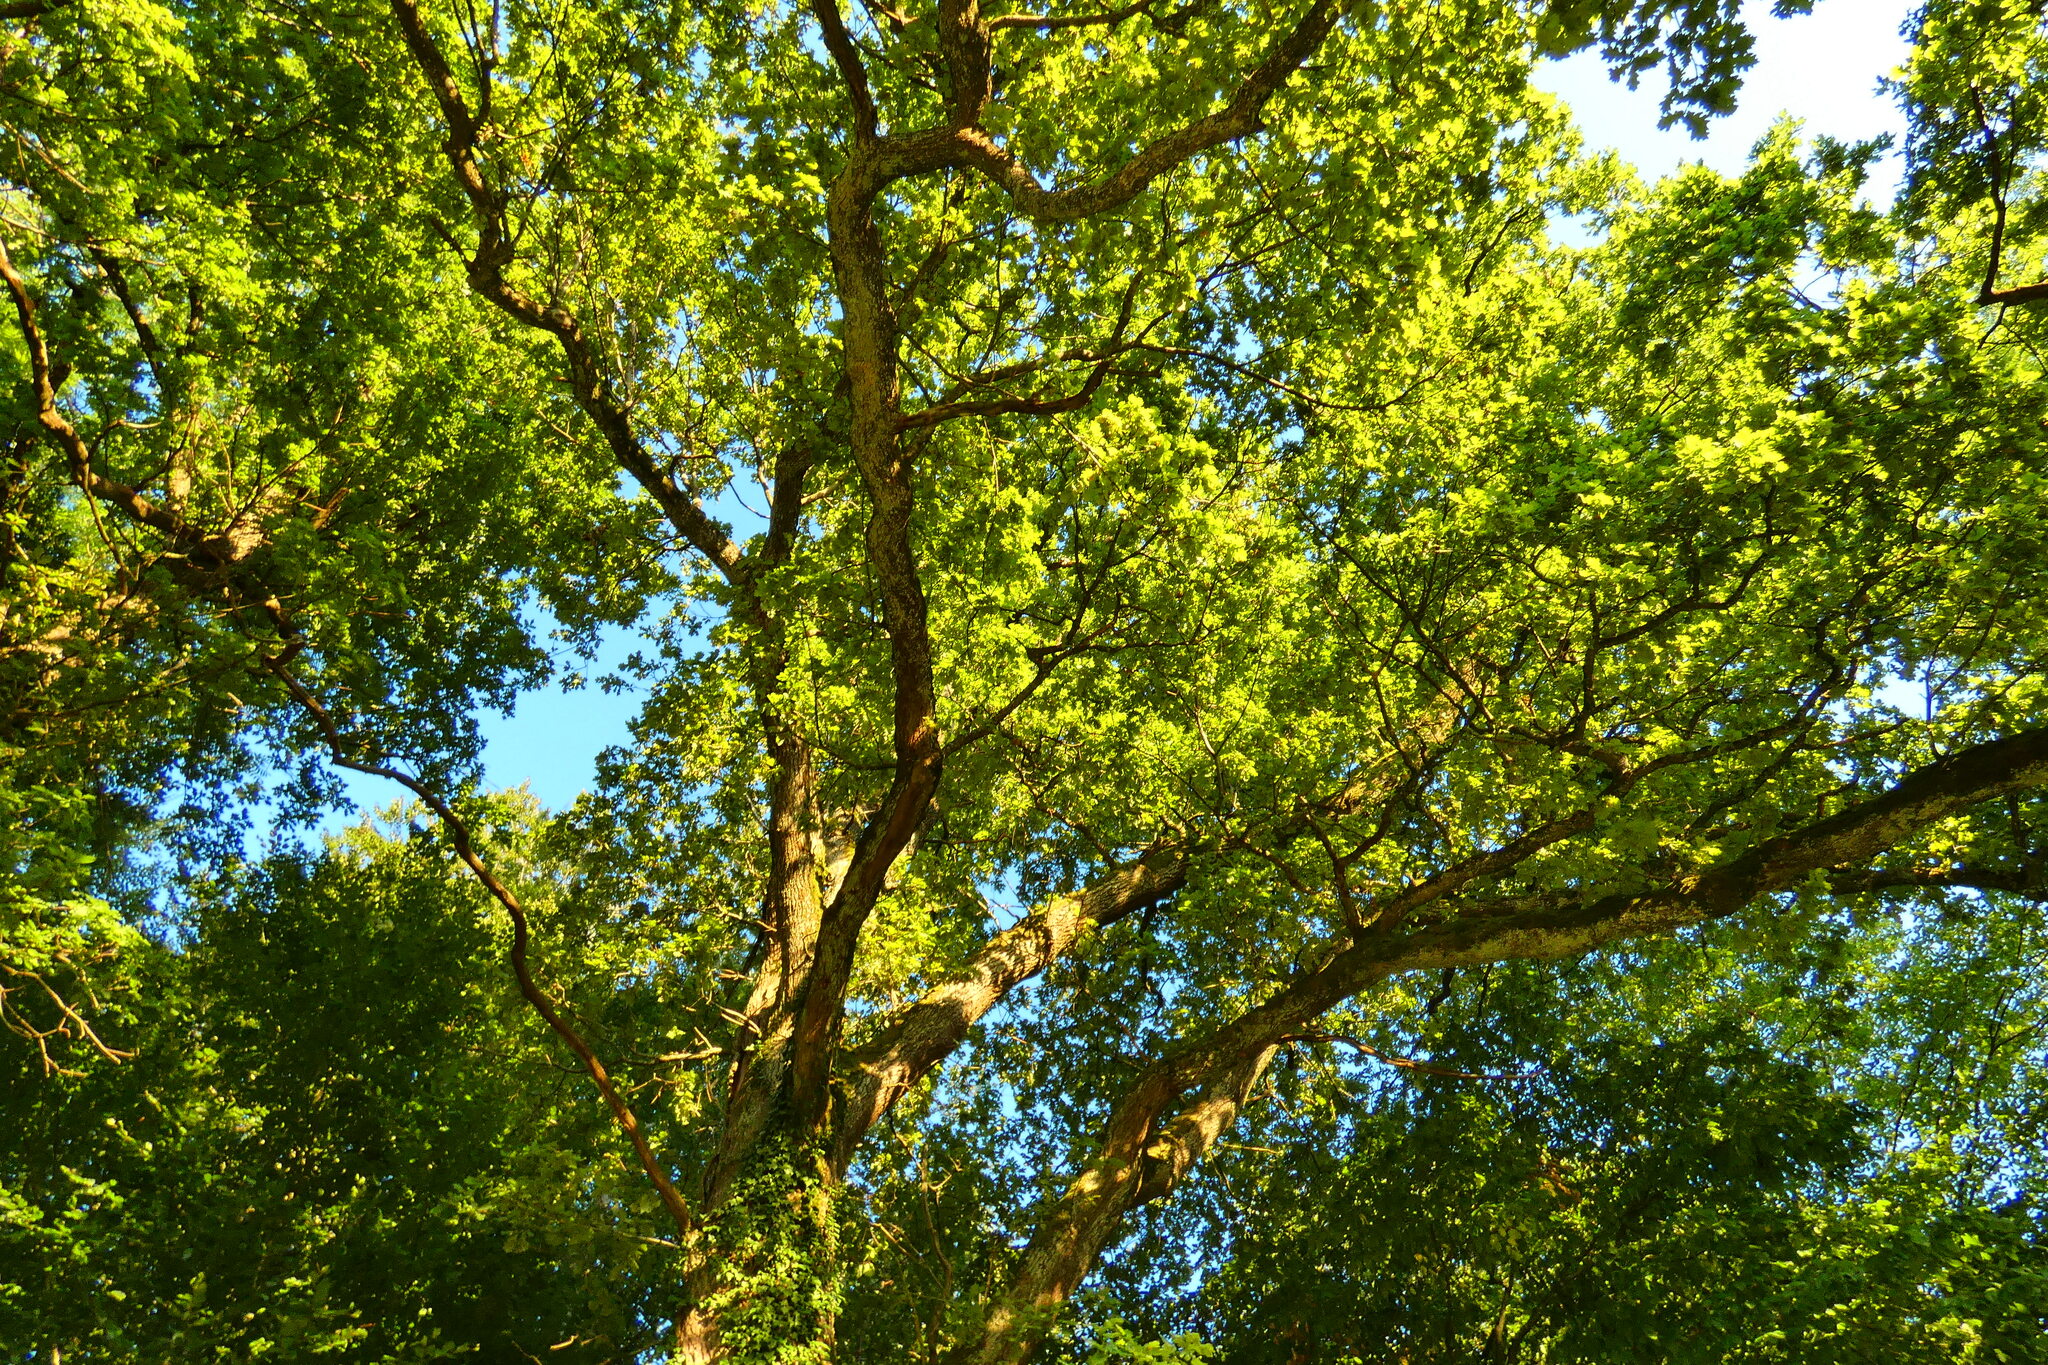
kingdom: Plantae
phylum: Tracheophyta
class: Magnoliopsida
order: Fagales
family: Fagaceae
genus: Quercus
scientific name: Quercus robur
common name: Pedunculate oak
